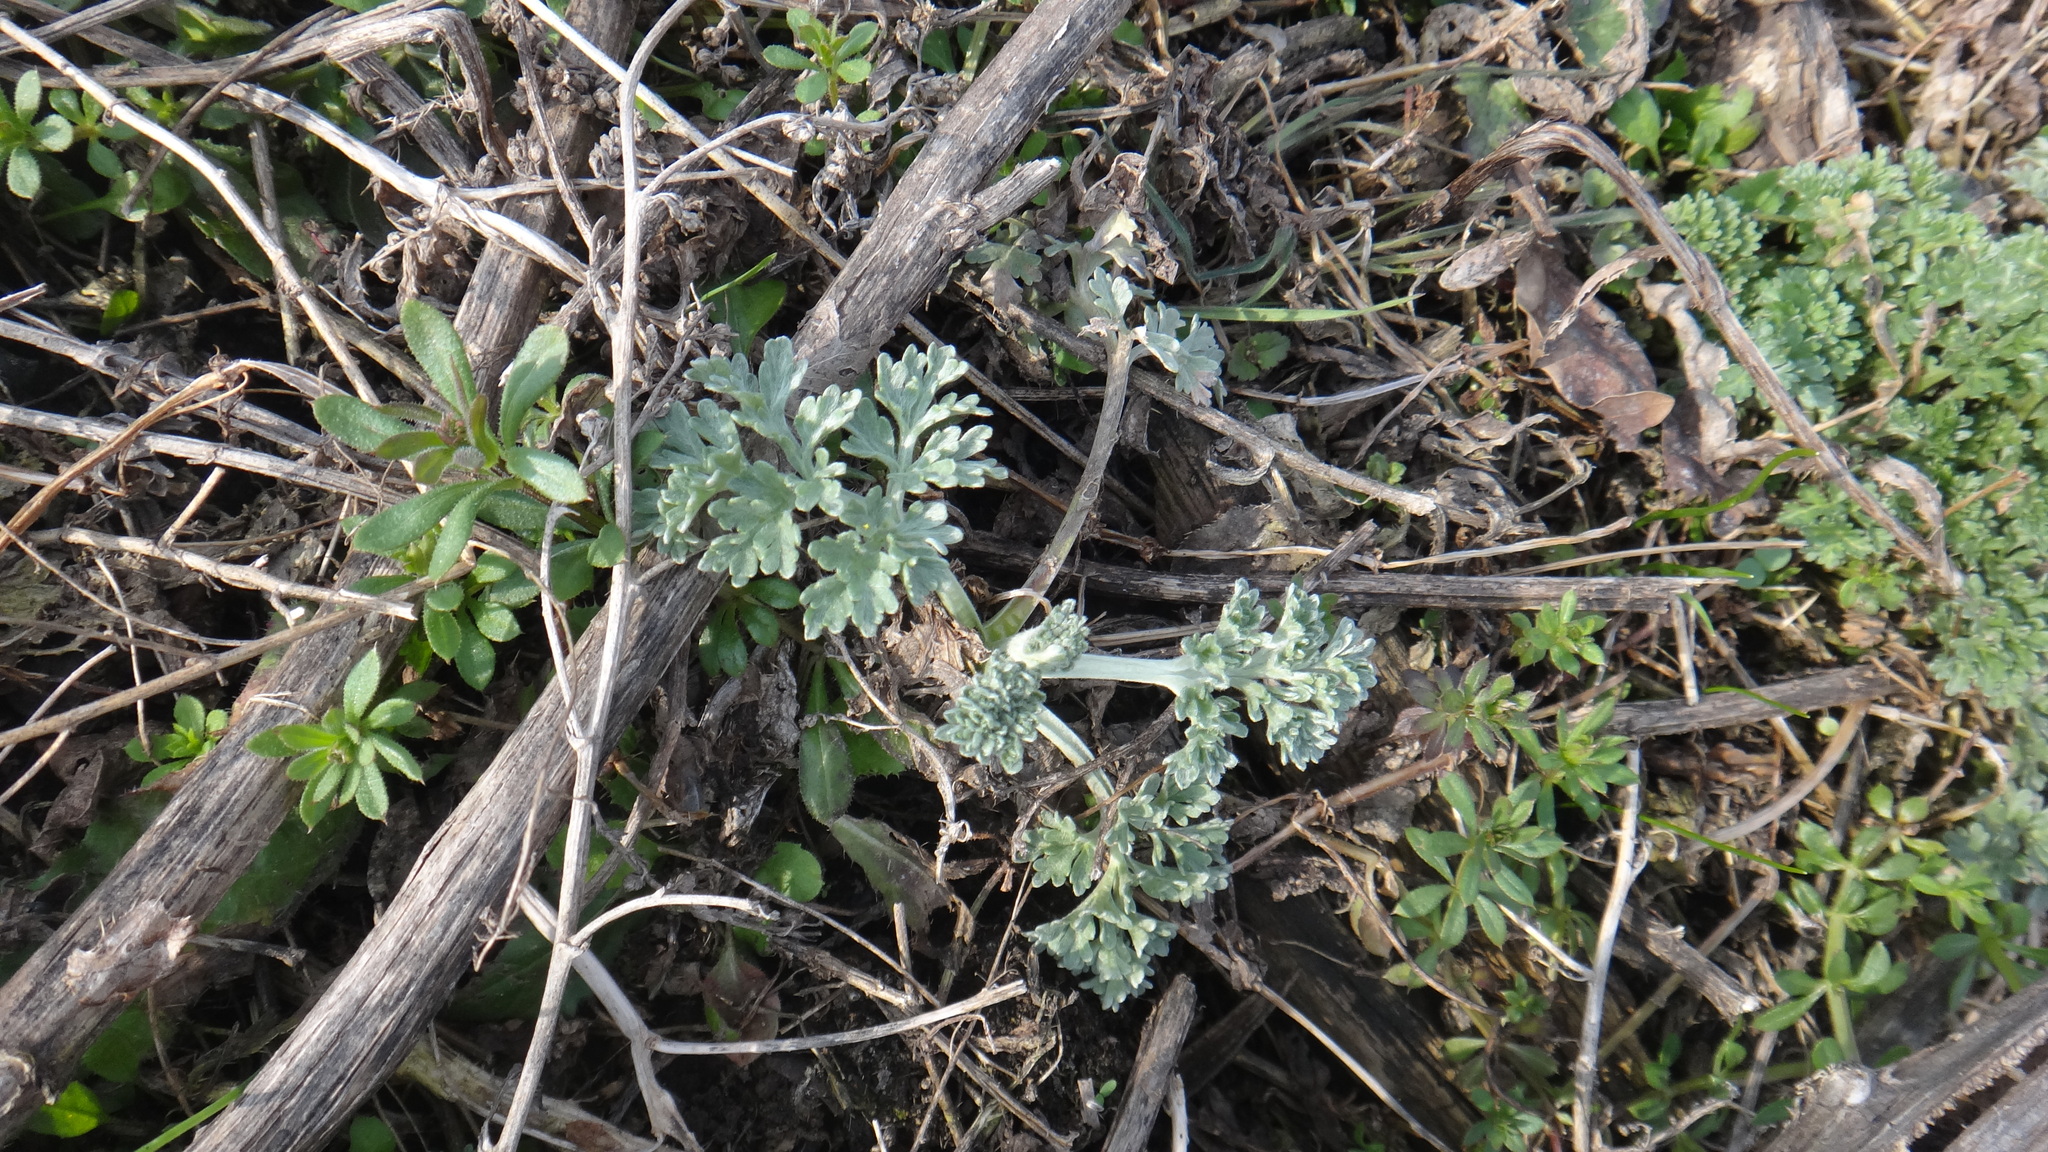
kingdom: Plantae
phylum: Tracheophyta
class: Magnoliopsida
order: Asterales
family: Asteraceae
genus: Artemisia
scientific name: Artemisia absinthium
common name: Wormwood
